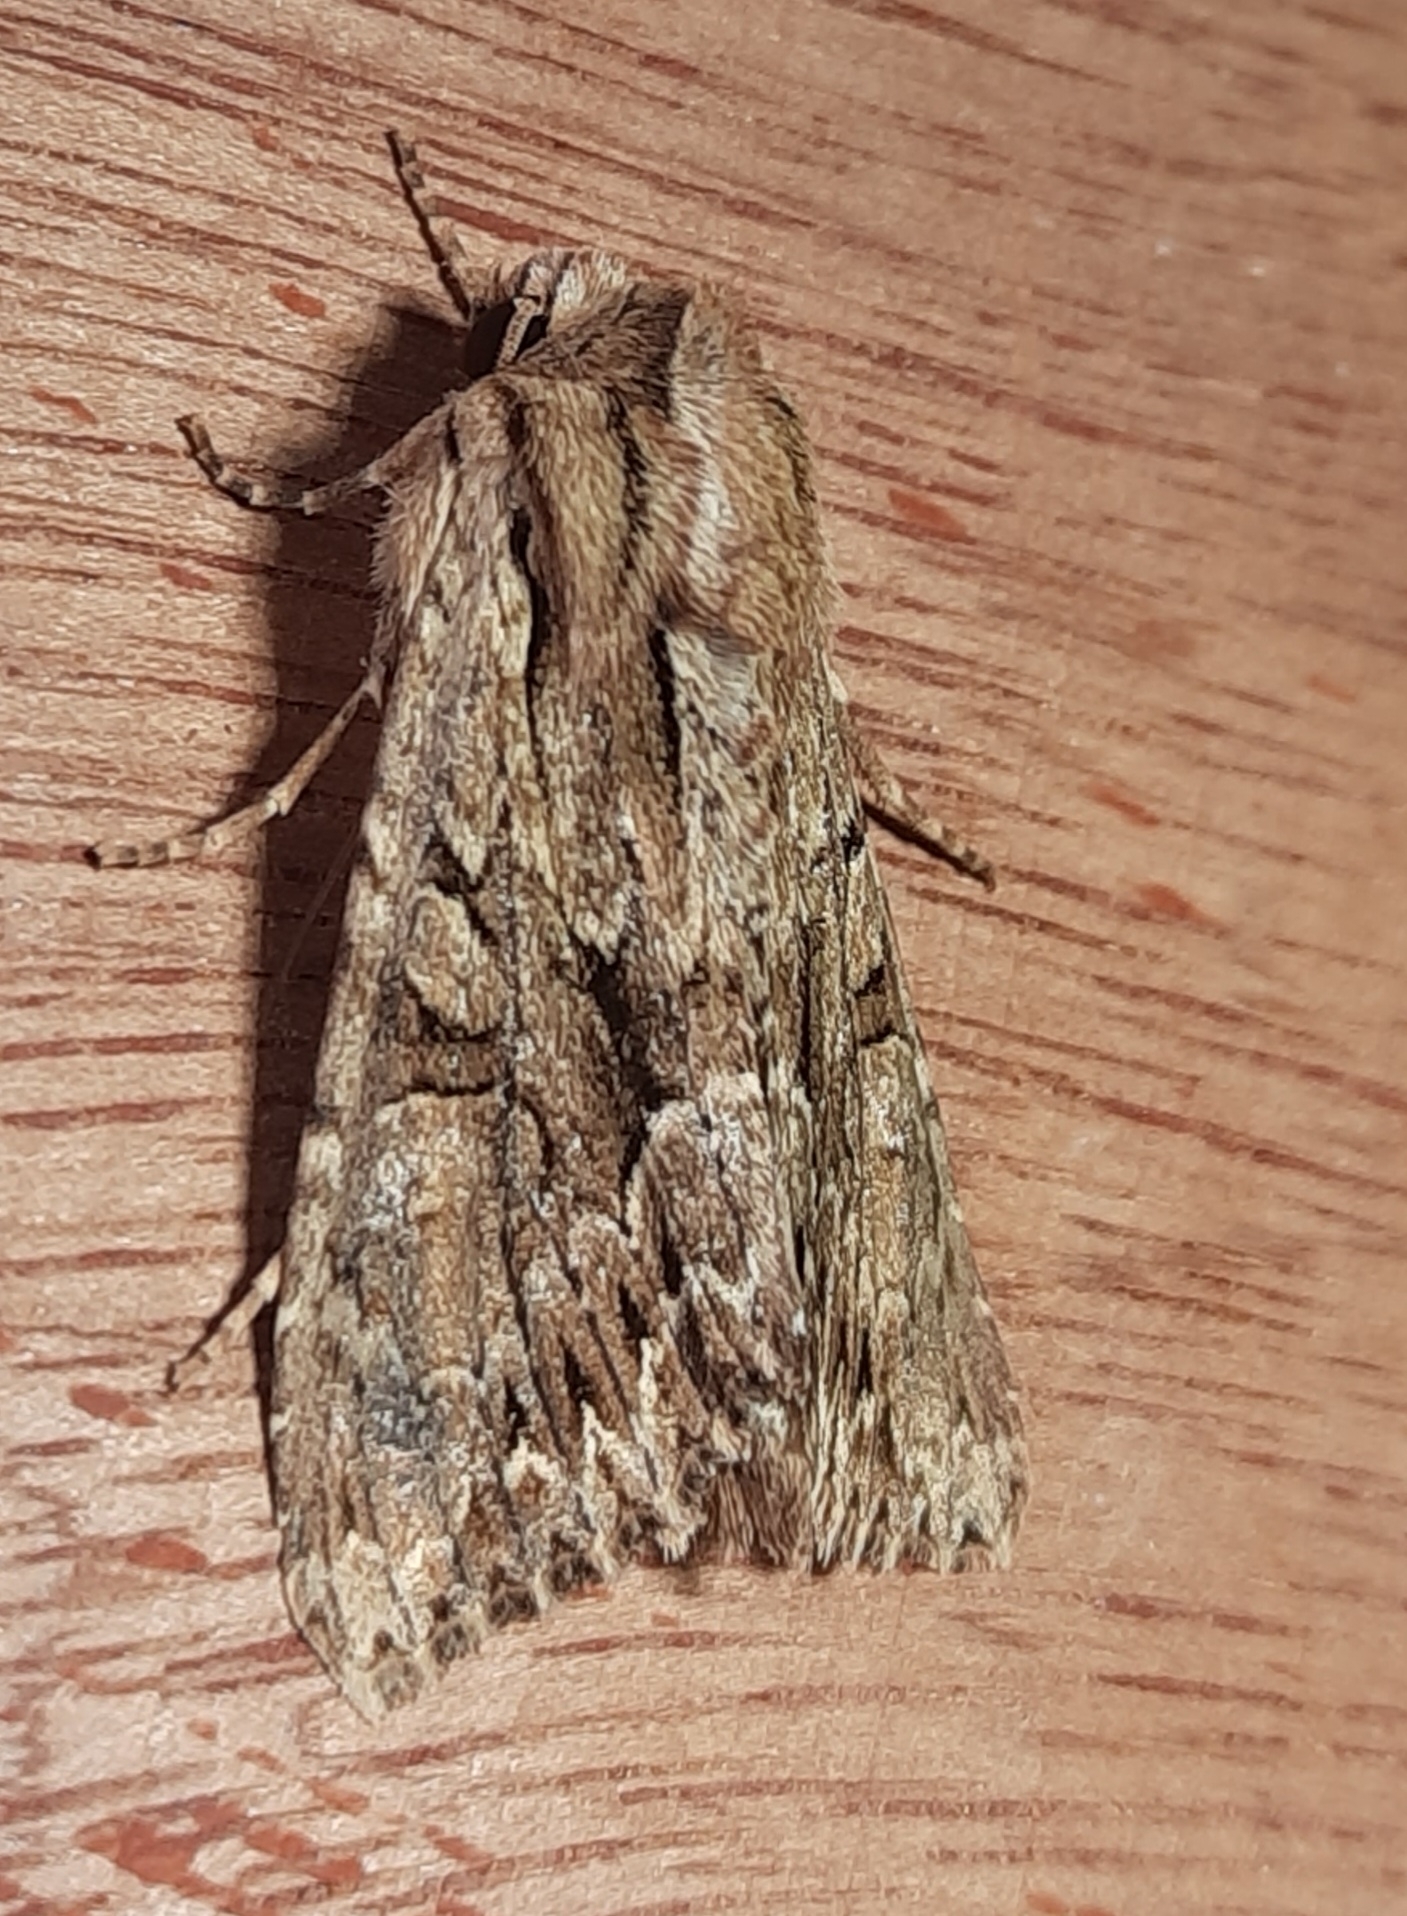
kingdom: Animalia
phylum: Arthropoda
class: Insecta
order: Lepidoptera
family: Noctuidae
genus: Apamea
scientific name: Apamea monoglypha
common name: Dark arches
